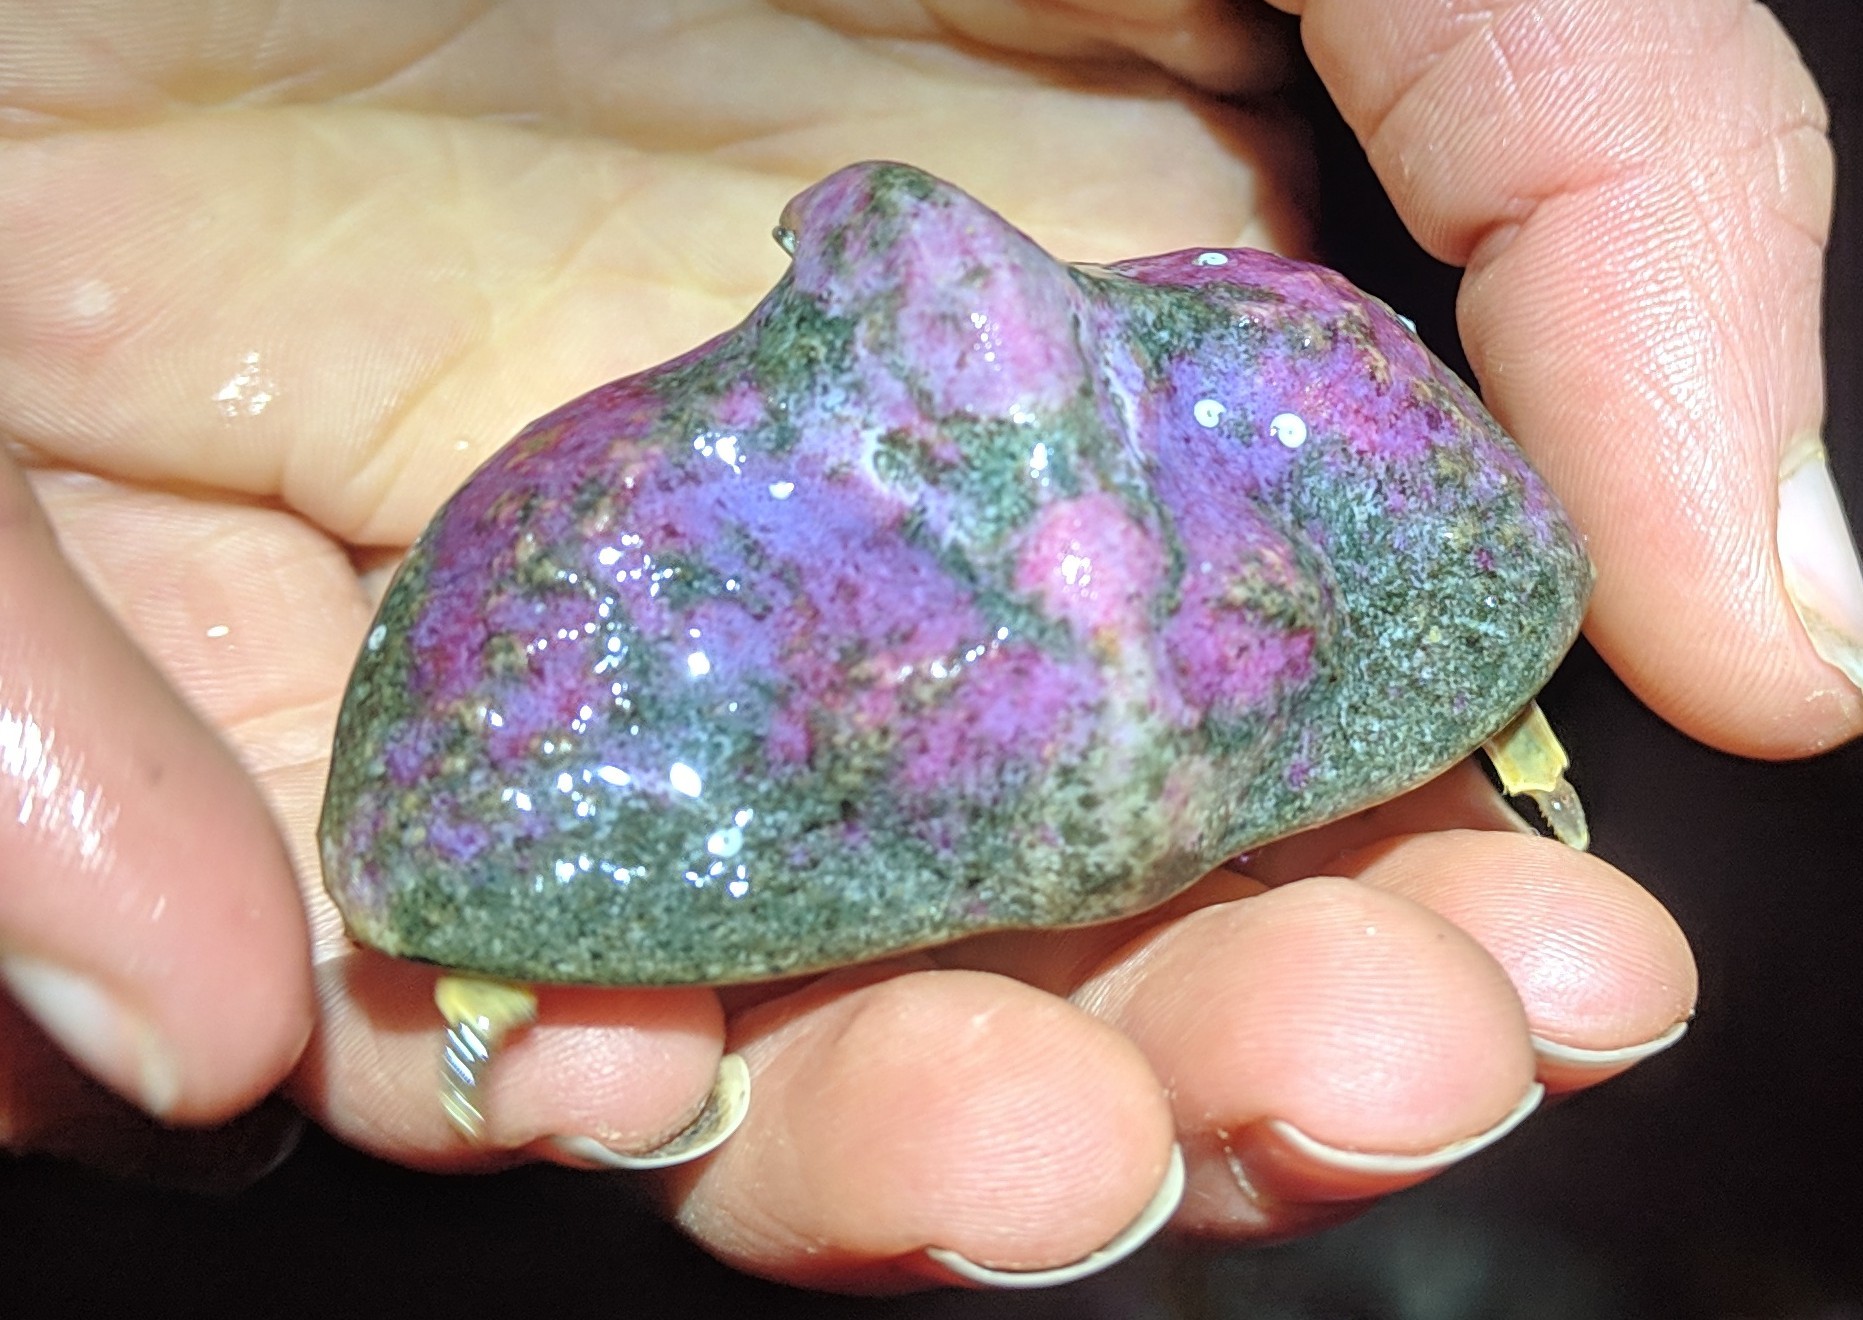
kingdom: Animalia
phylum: Arthropoda
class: Malacostraca
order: Decapoda
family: Lithodidae
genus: Cryptolithodes
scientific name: Cryptolithodes typicus
